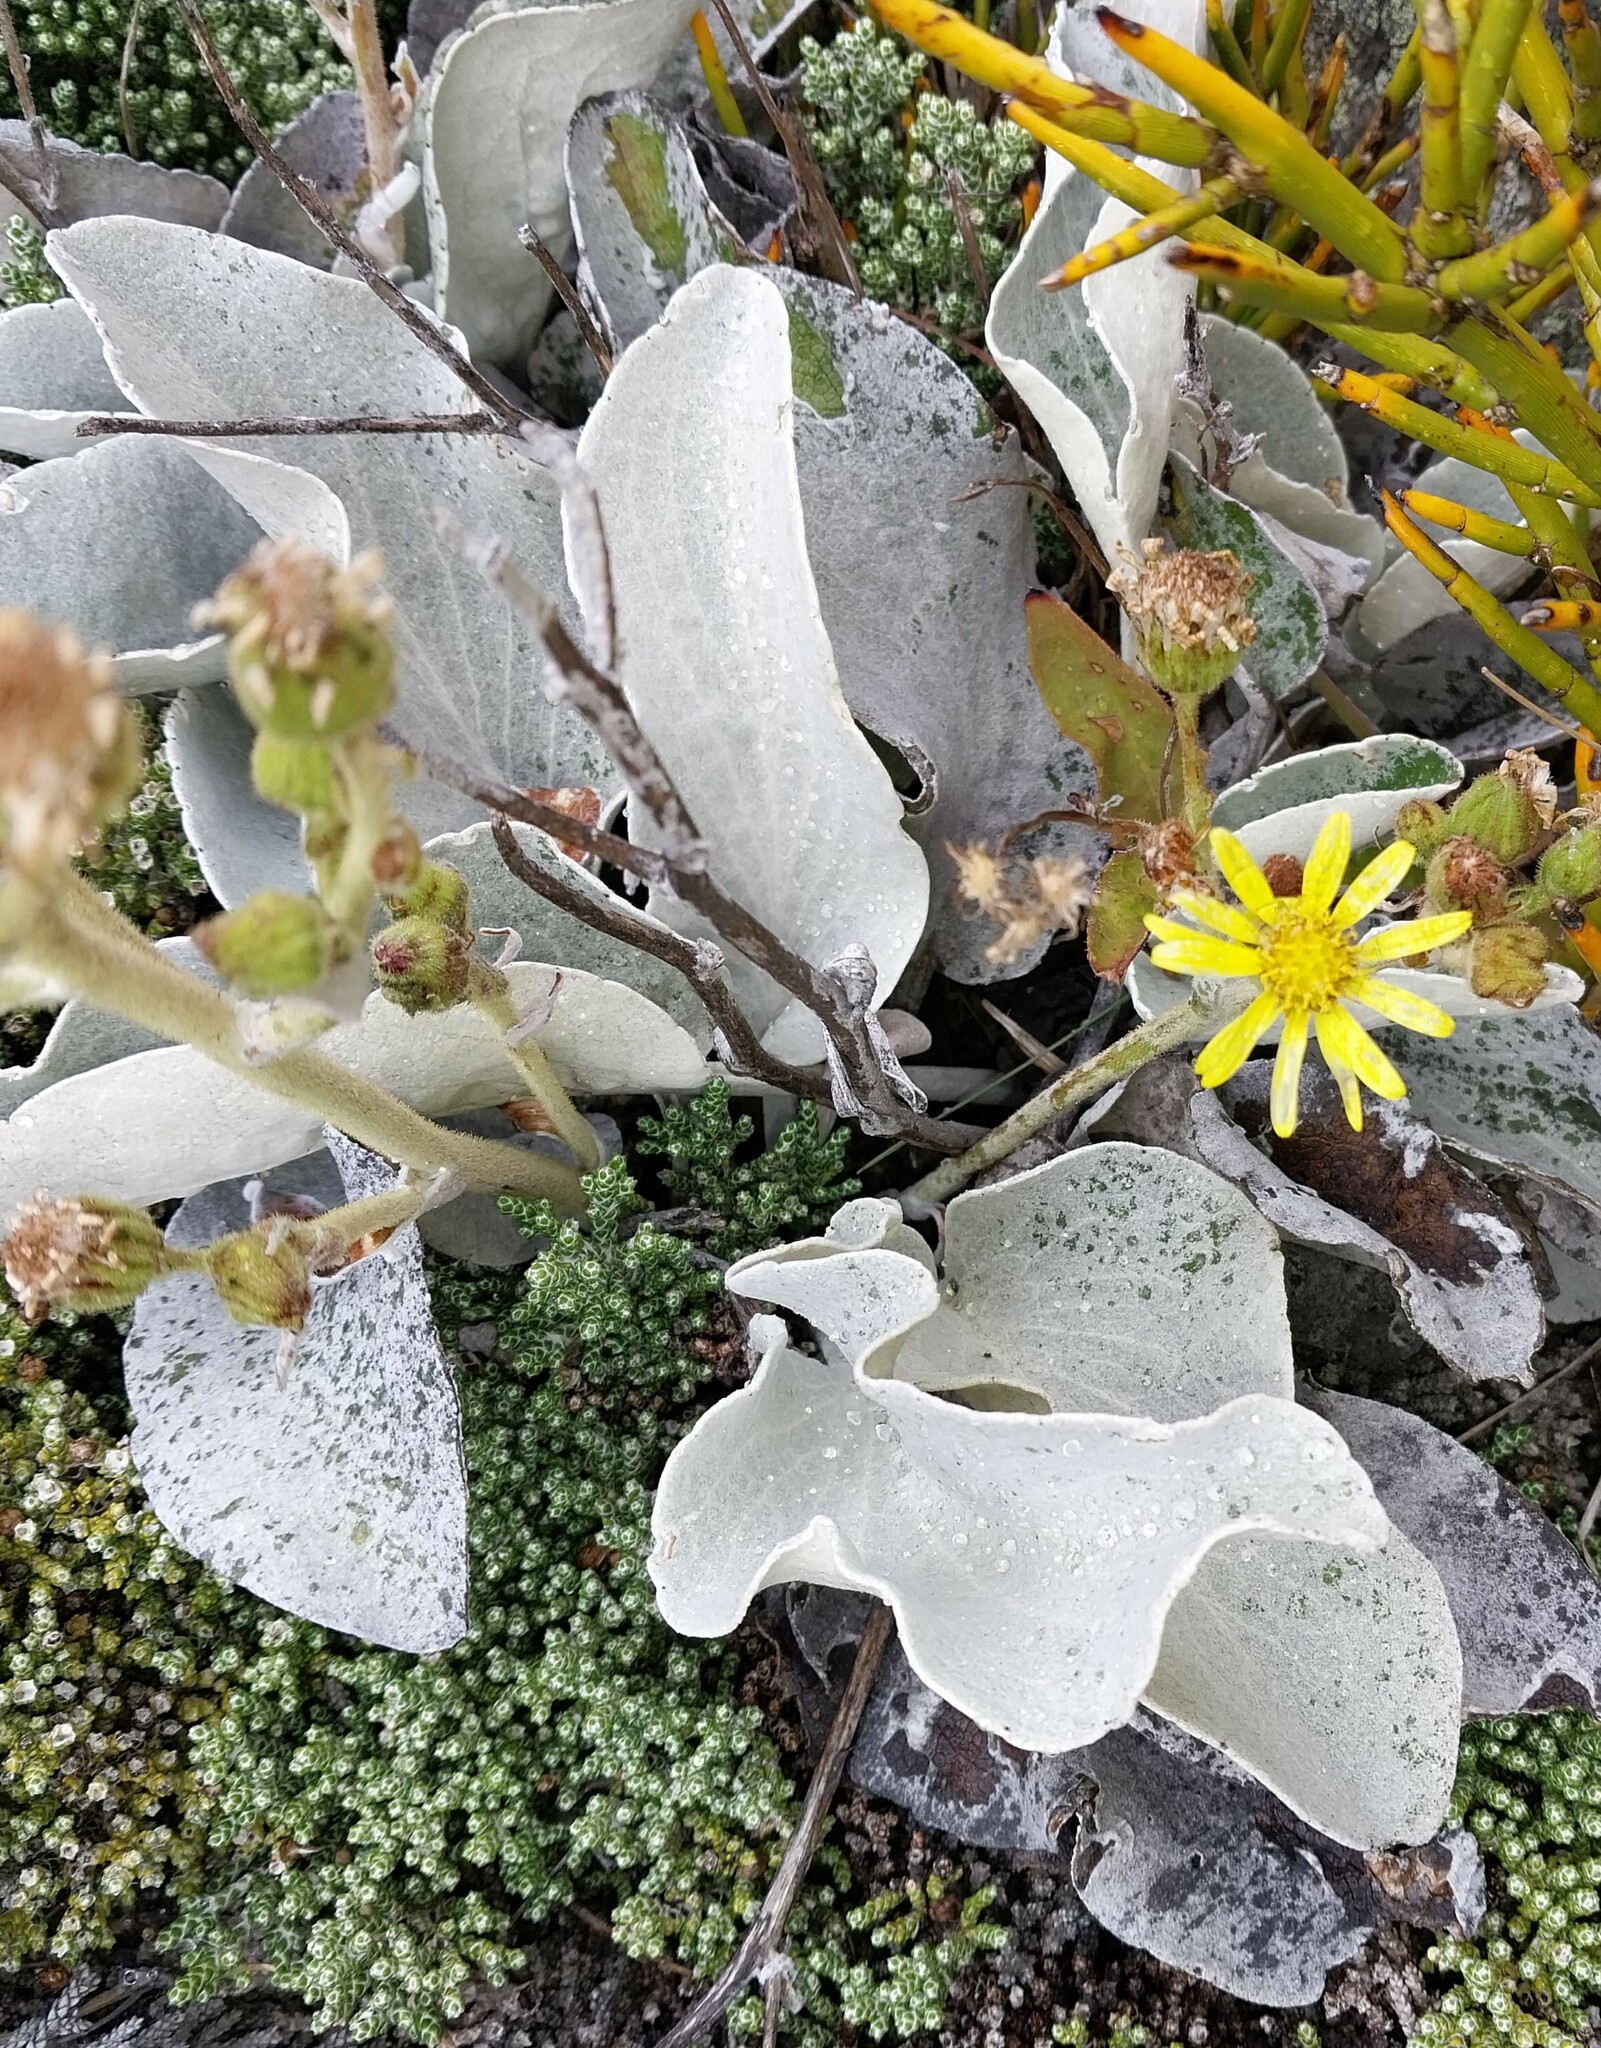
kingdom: Plantae
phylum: Tracheophyta
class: Magnoliopsida
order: Asterales
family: Asteraceae
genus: Brachyglottis
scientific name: Brachyglottis haastii
